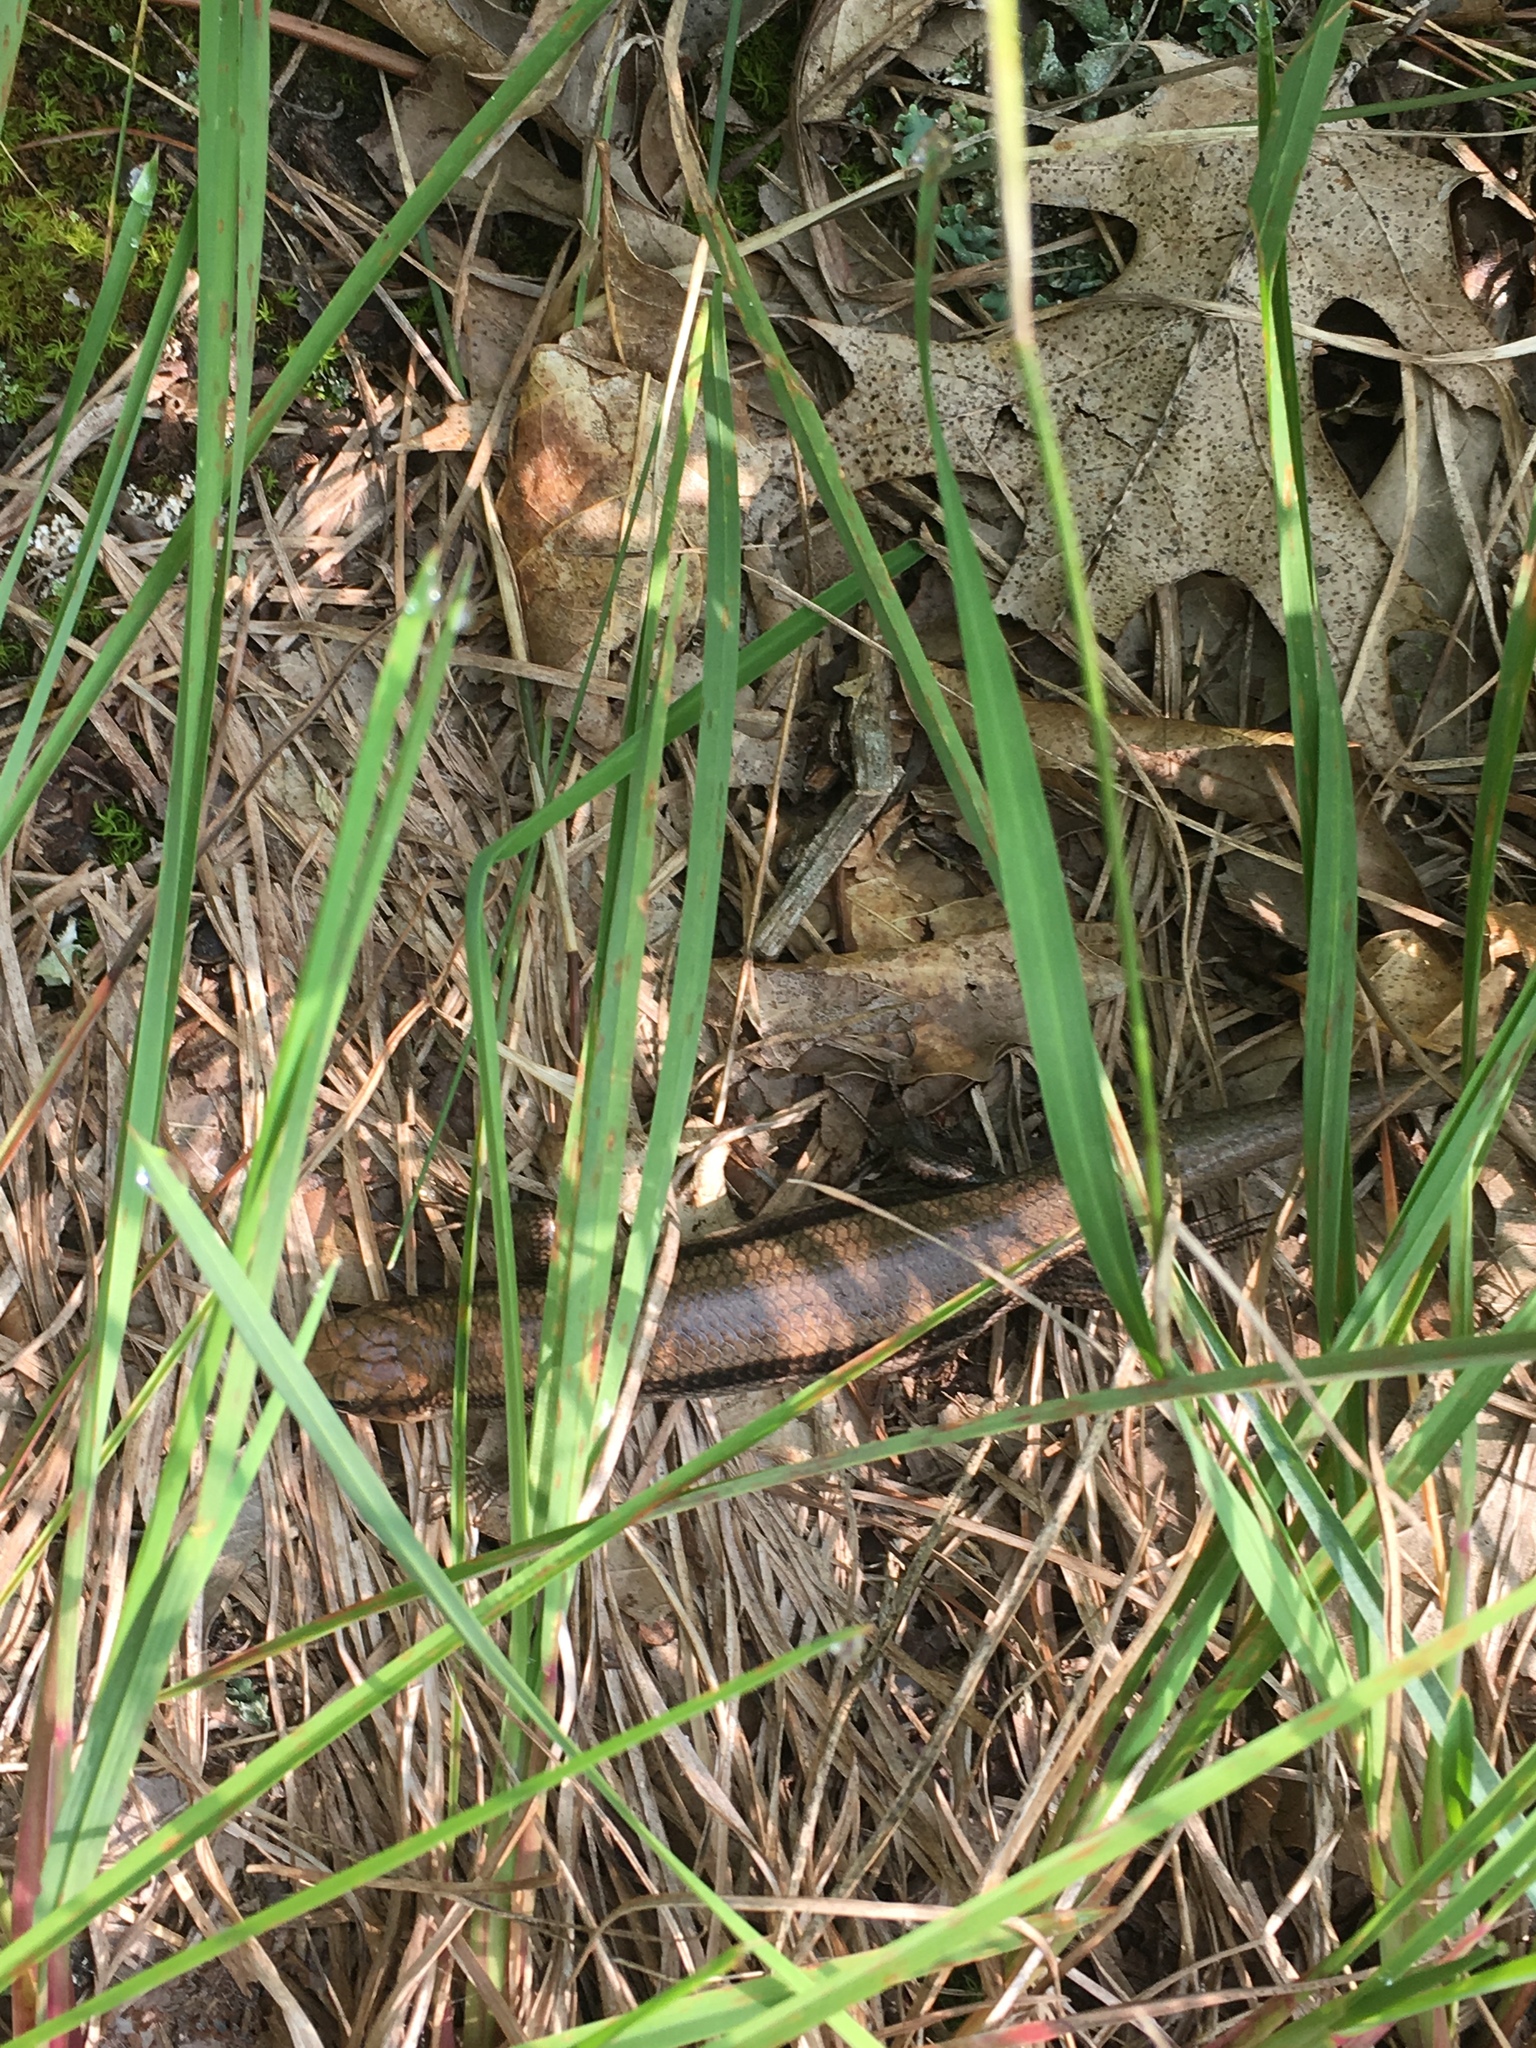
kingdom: Animalia
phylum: Chordata
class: Squamata
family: Scincidae
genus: Plestiodon
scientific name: Plestiodon fasciatus
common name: Five-lined skink
